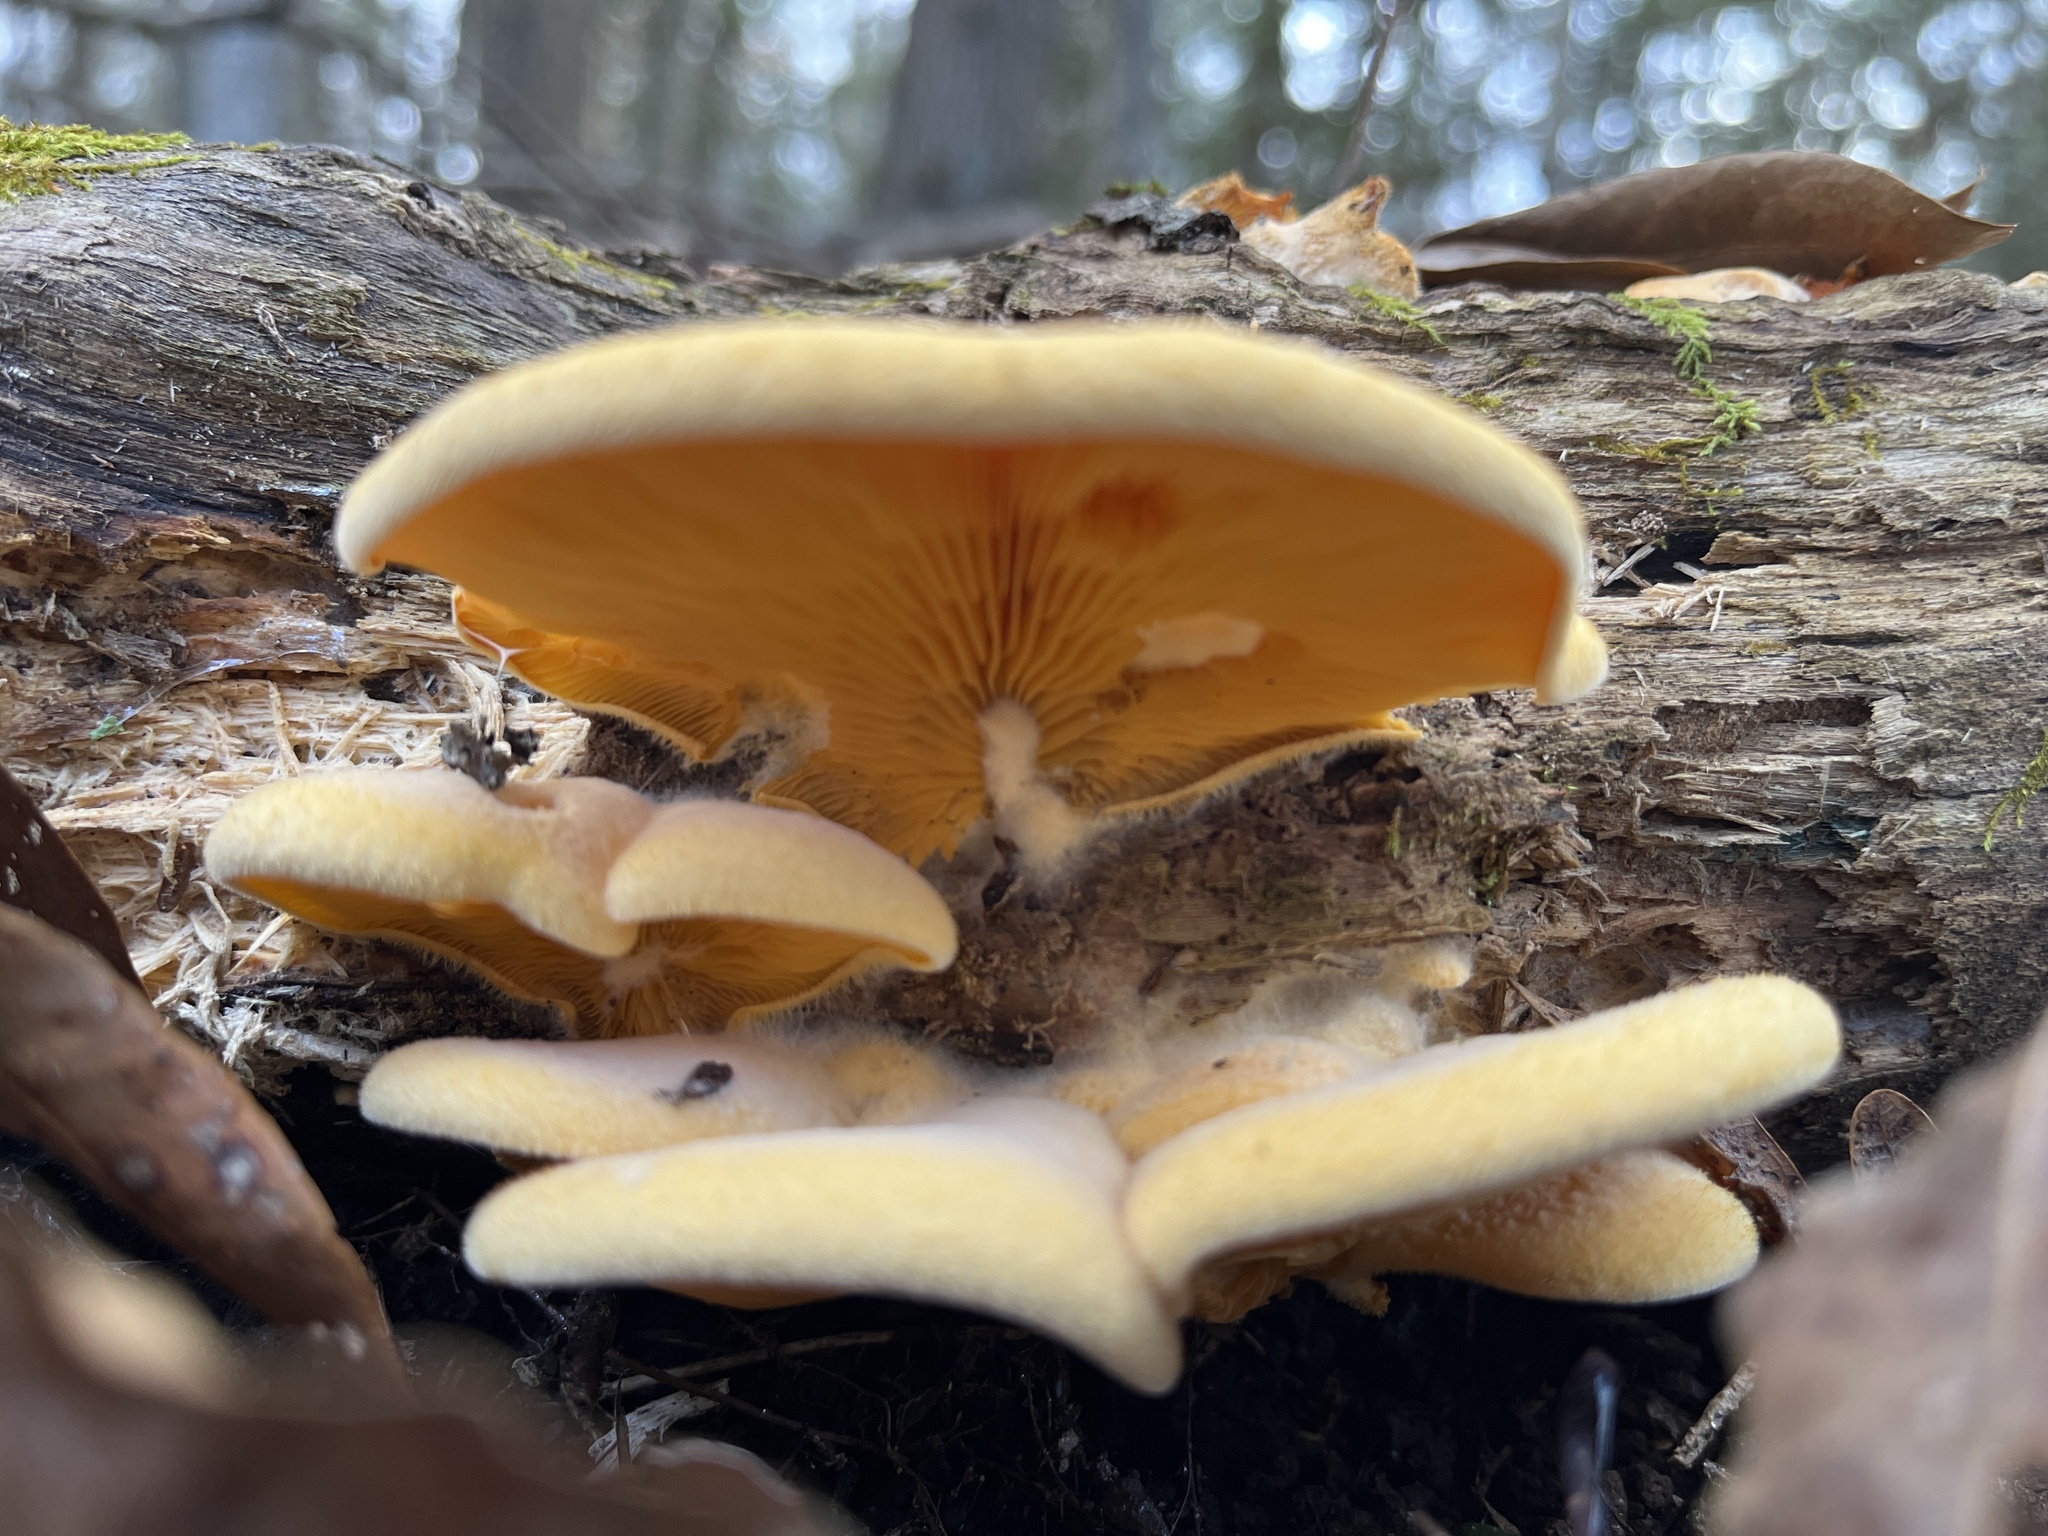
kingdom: Fungi
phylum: Basidiomycota
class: Agaricomycetes
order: Agaricales
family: Phyllotopsidaceae
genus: Phyllotopsis
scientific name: Phyllotopsis nidulans
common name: Orange mock oyster
